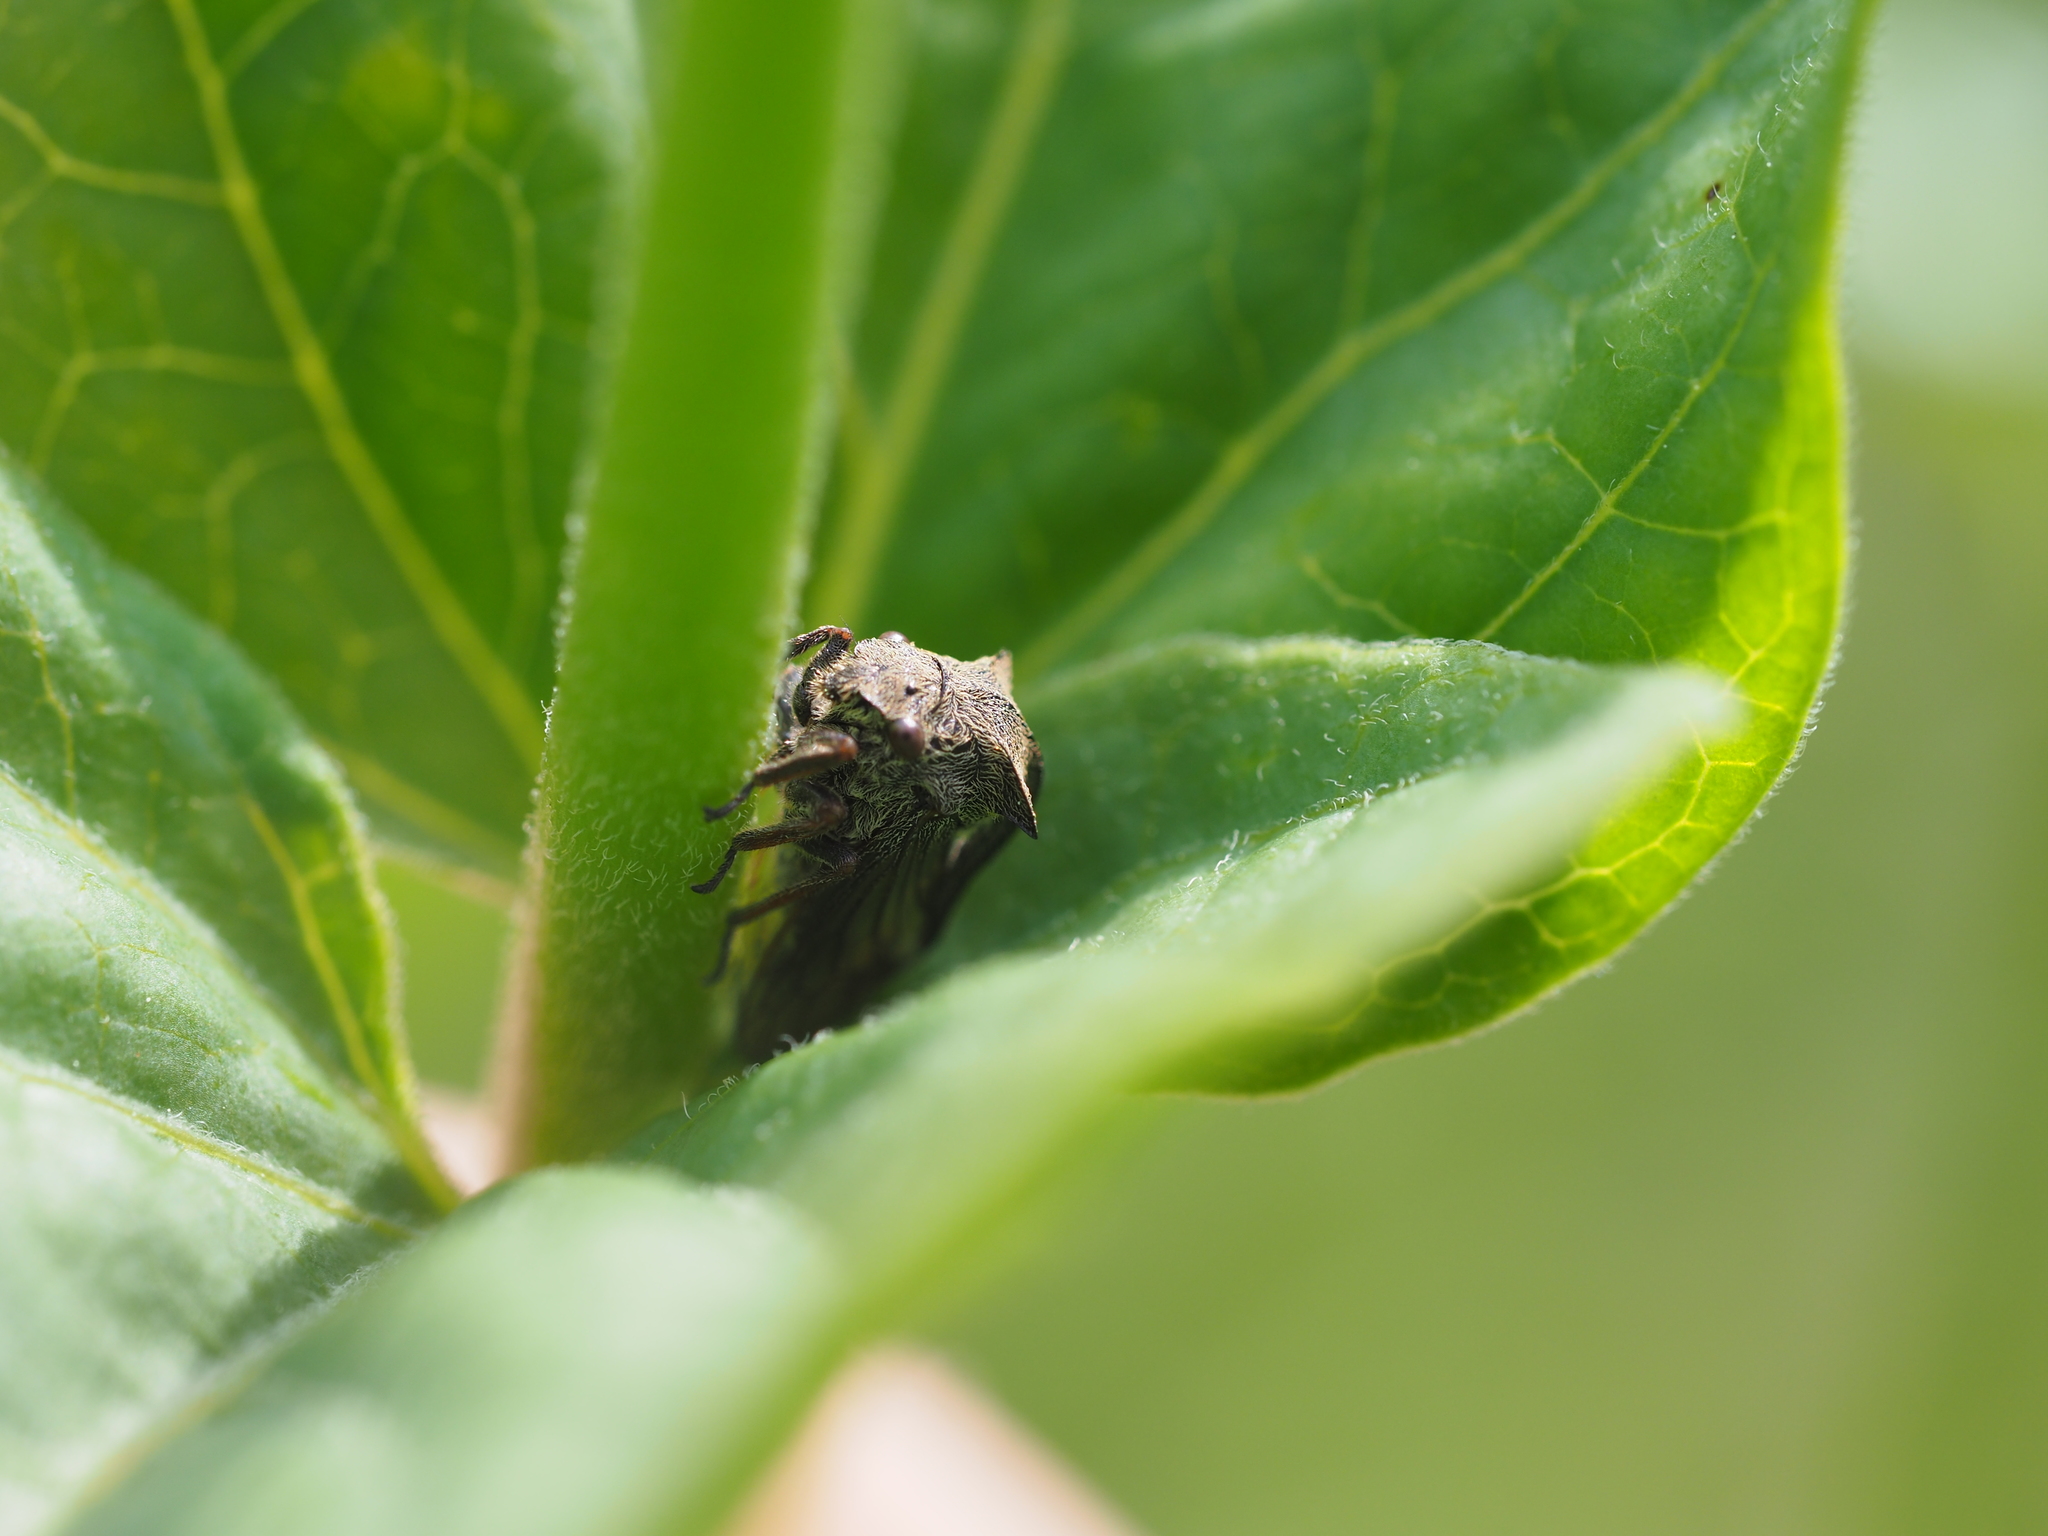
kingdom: Animalia
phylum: Arthropoda
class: Insecta
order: Hemiptera
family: Membracidae
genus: Centrotus
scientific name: Centrotus cornuta
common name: Treehopper
